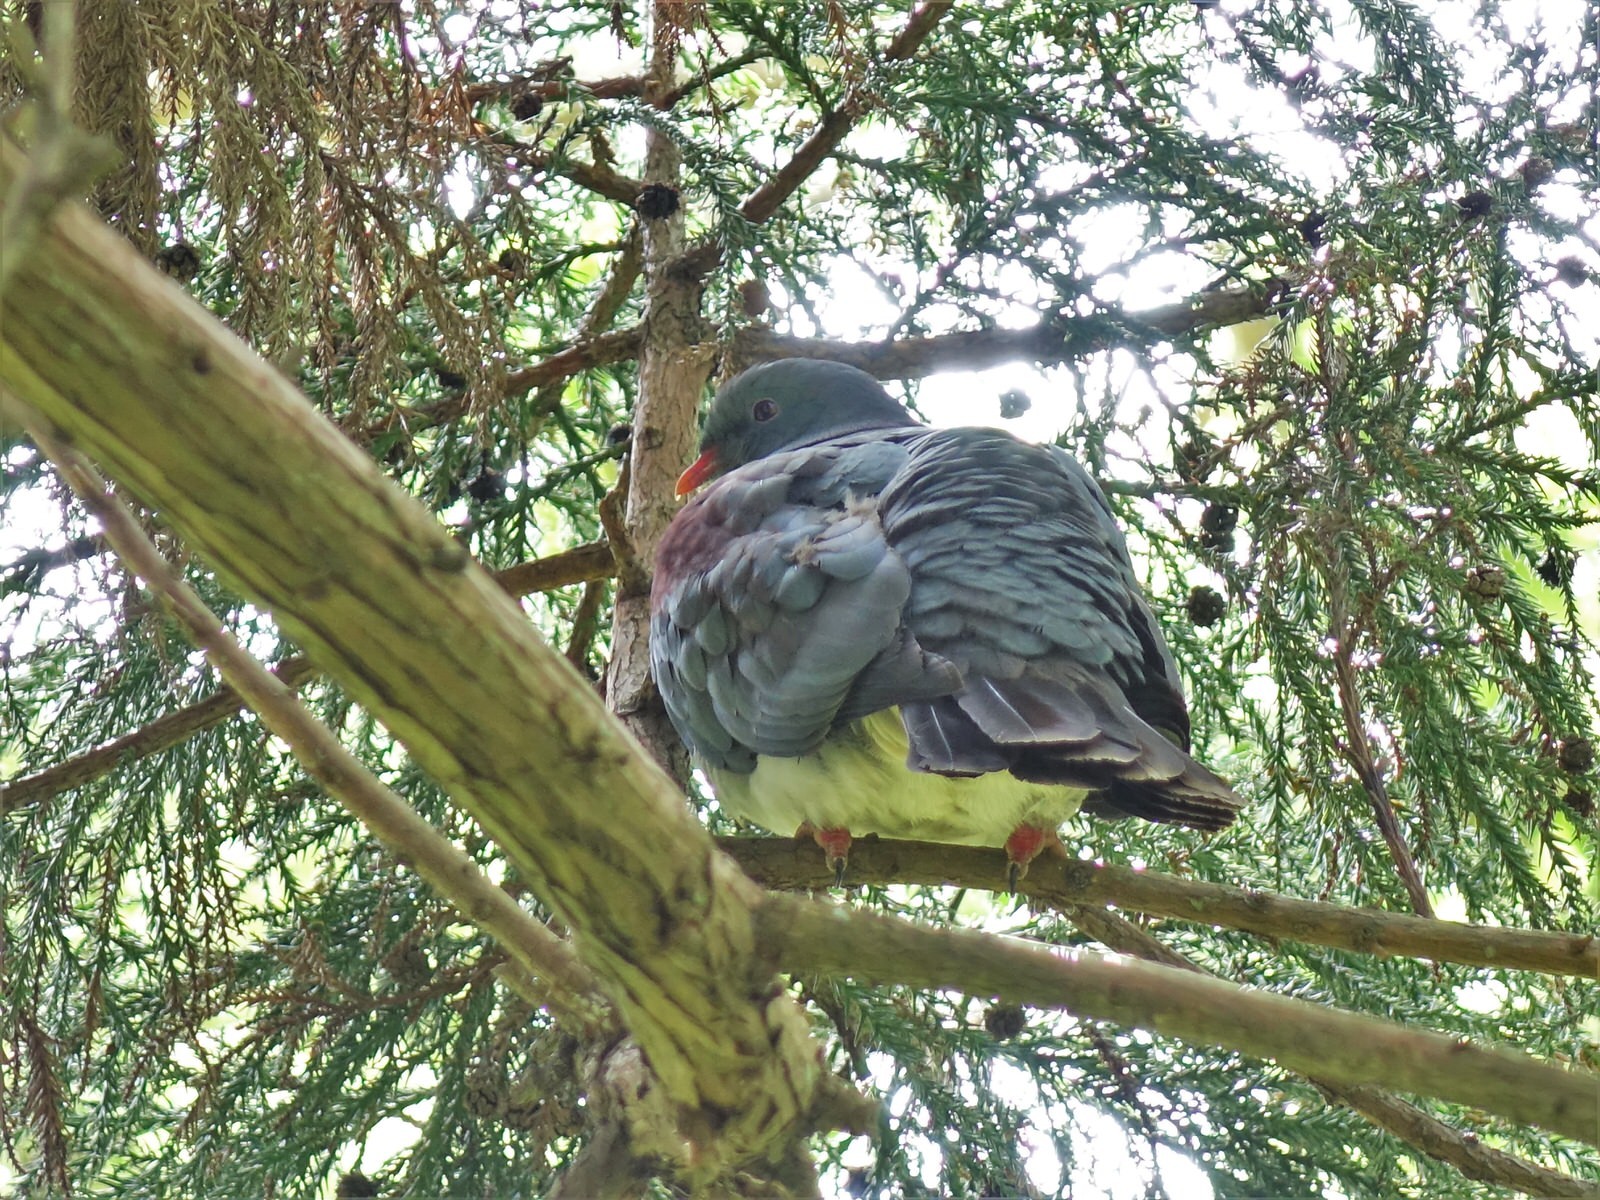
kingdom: Animalia
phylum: Chordata
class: Aves
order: Columbiformes
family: Columbidae
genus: Hemiphaga
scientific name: Hemiphaga novaeseelandiae
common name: New zealand pigeon
